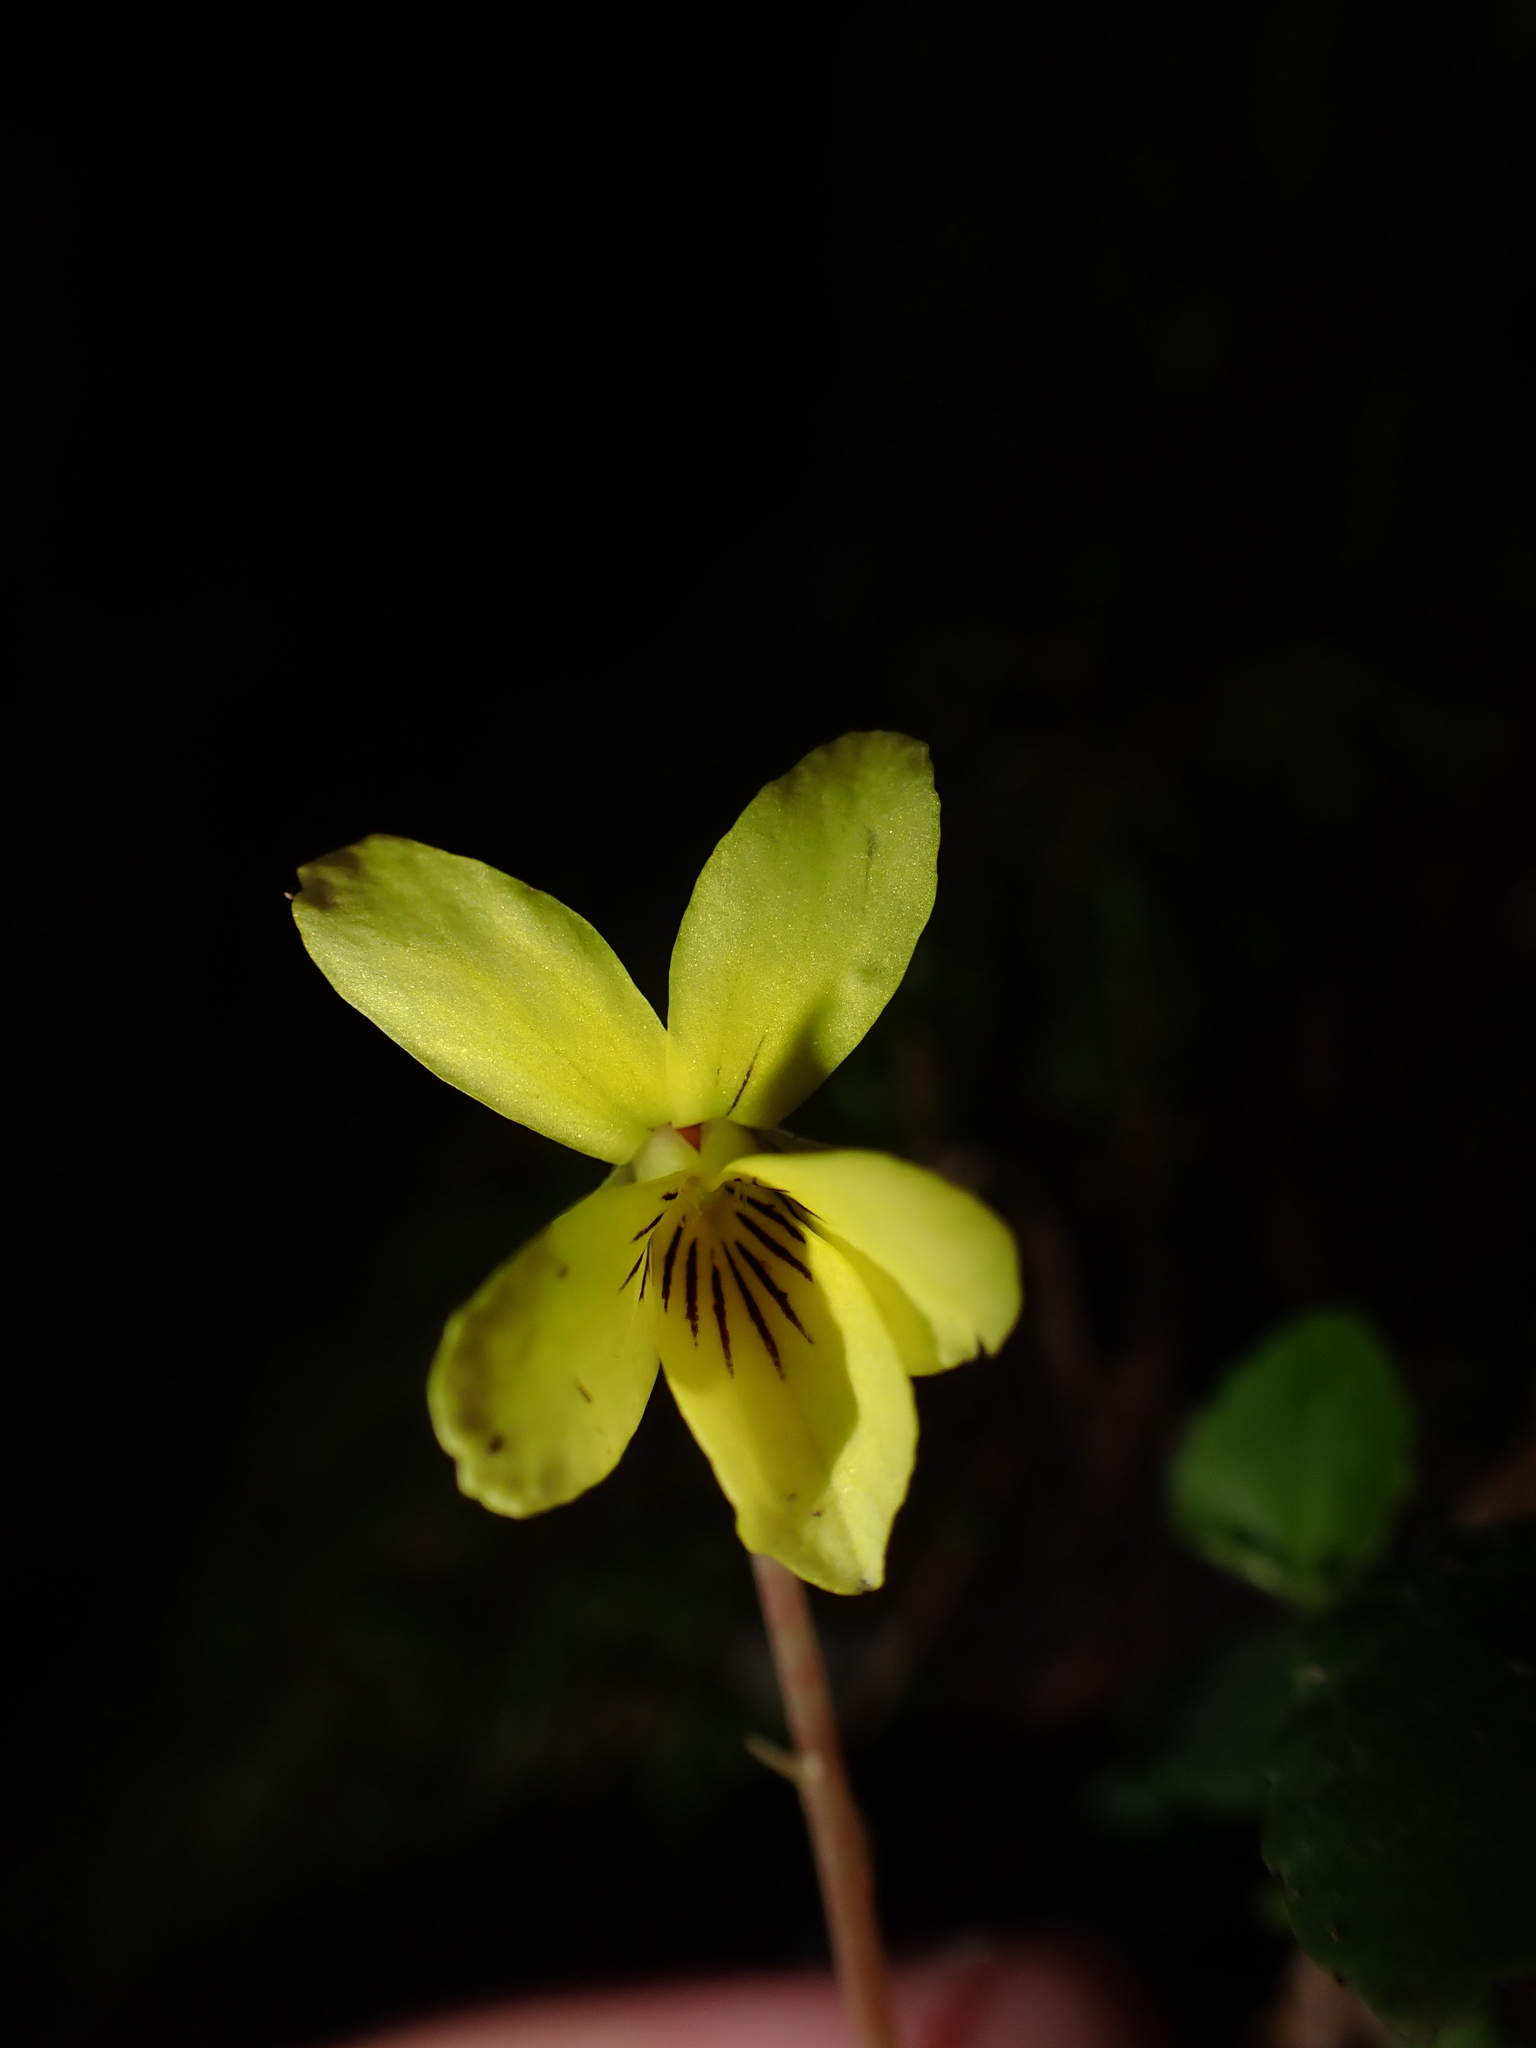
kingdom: Plantae
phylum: Tracheophyta
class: Magnoliopsida
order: Malpighiales
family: Violaceae
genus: Viola
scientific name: Viola sempervirens
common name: Evergreen violet
